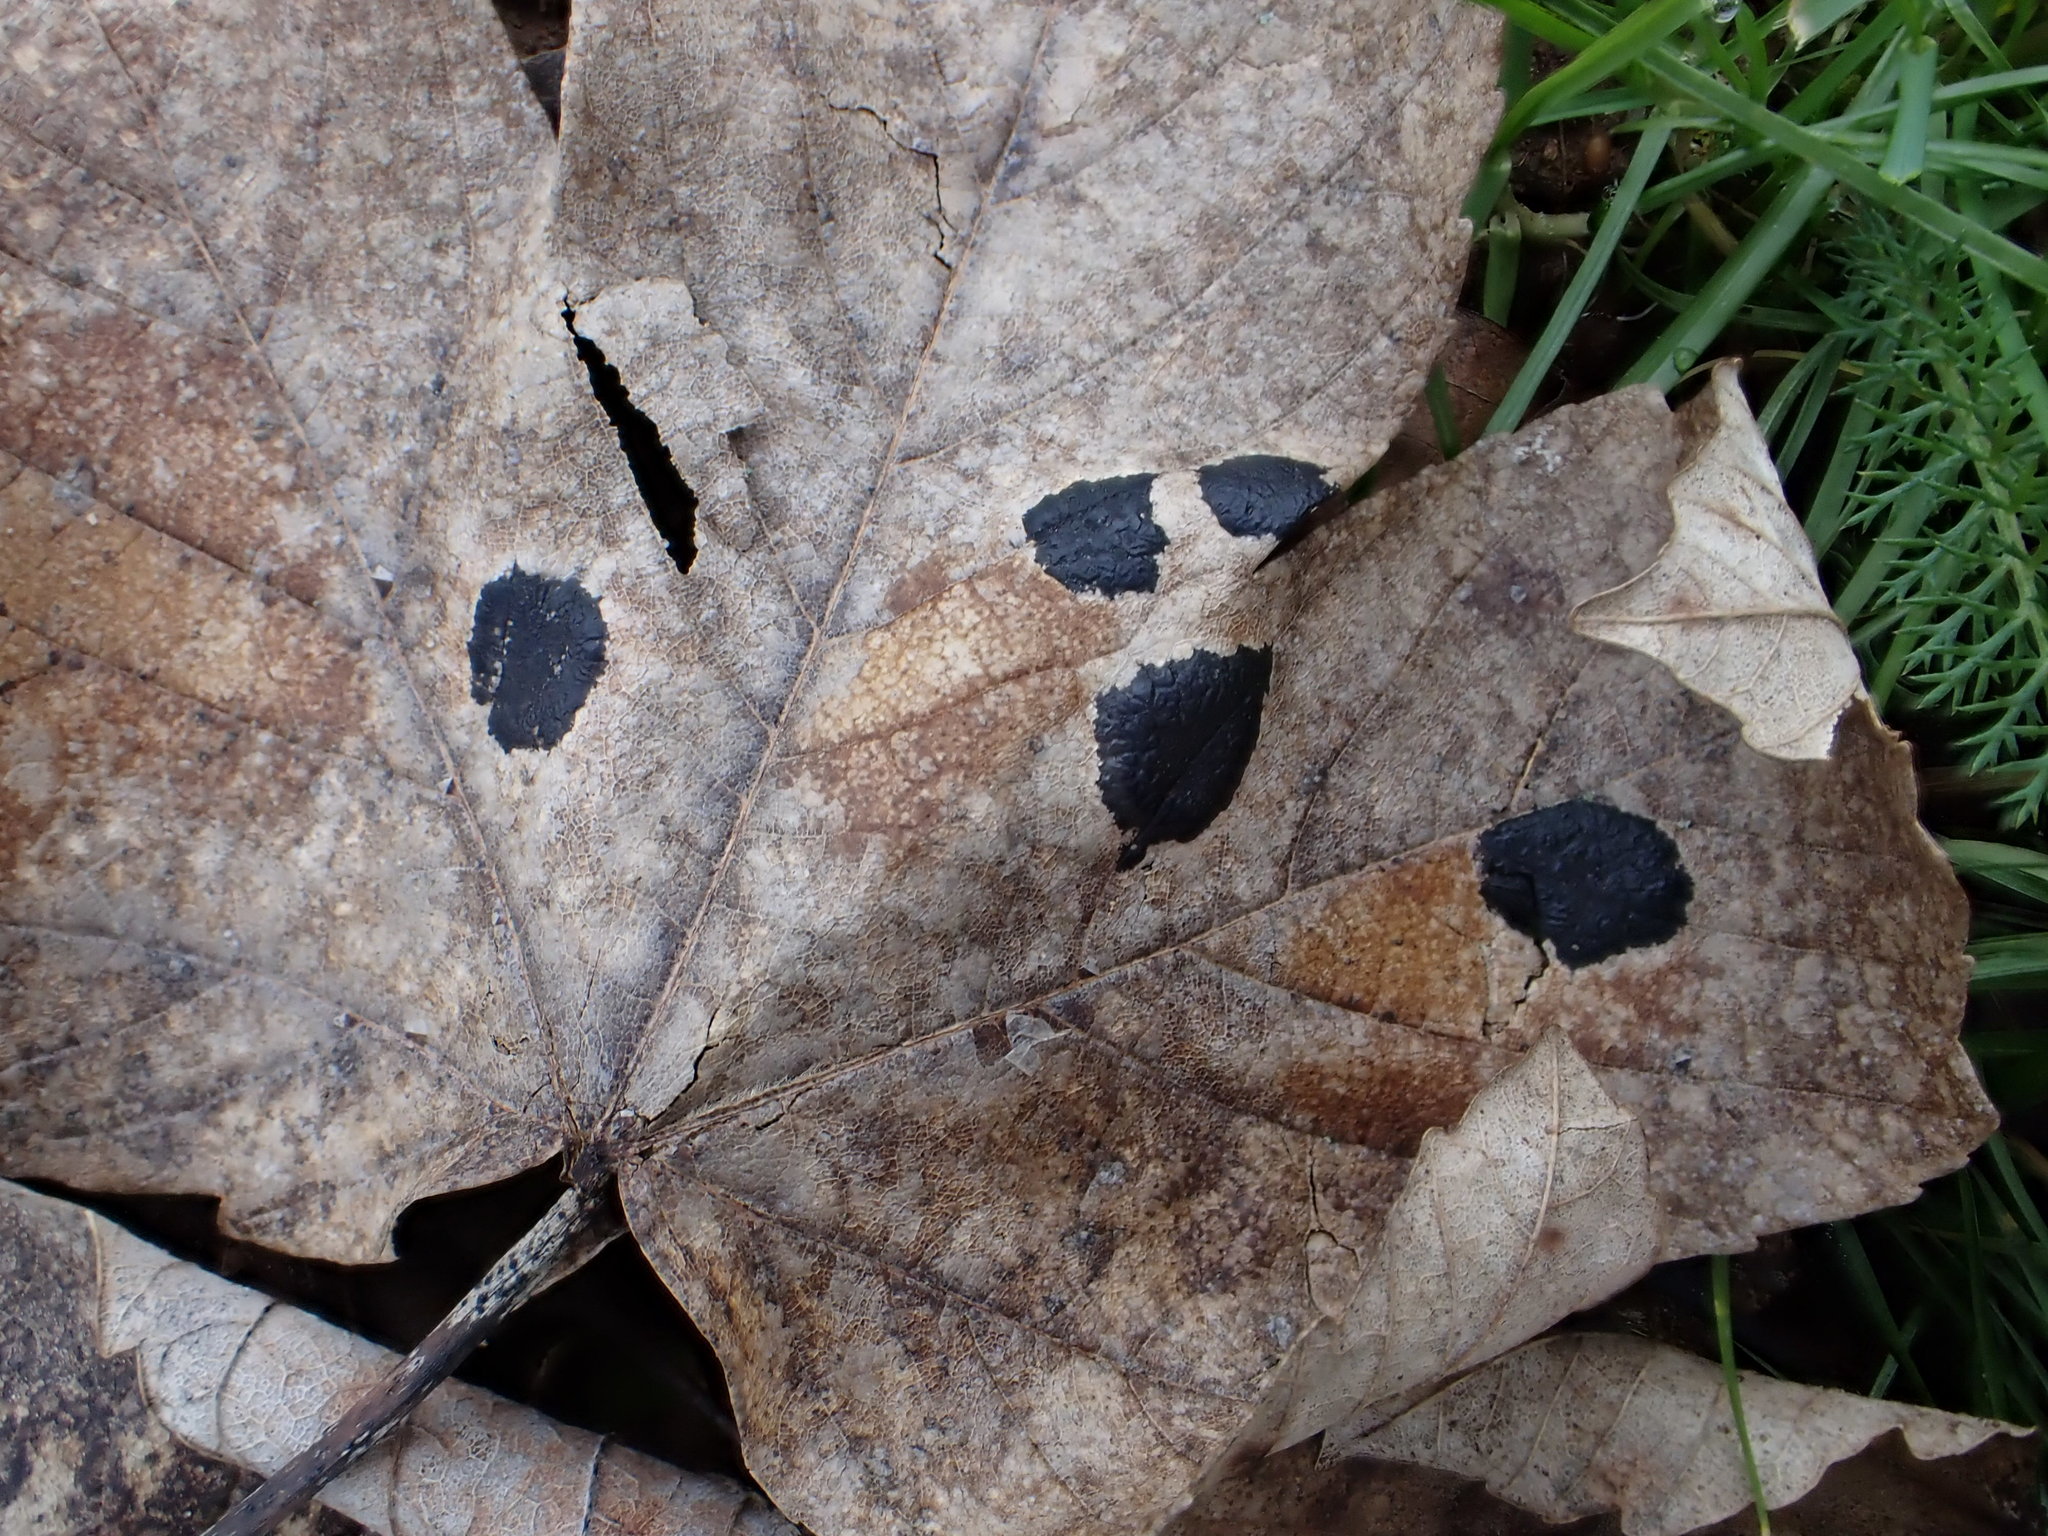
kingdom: Fungi
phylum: Ascomycota
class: Leotiomycetes
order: Rhytismatales
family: Rhytismataceae
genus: Rhytisma
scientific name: Rhytisma acerinum
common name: European tar spot
